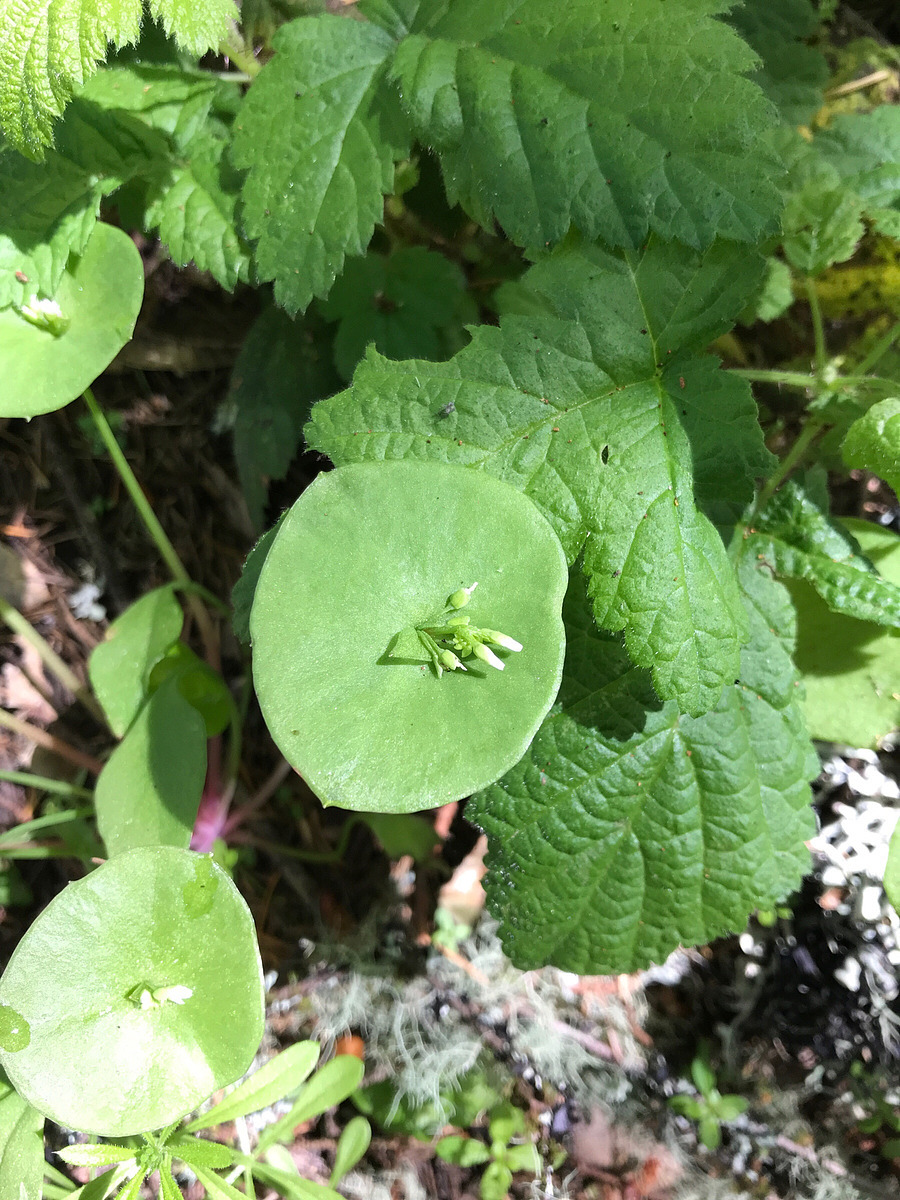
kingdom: Plantae
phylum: Tracheophyta
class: Magnoliopsida
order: Caryophyllales
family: Montiaceae
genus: Claytonia
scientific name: Claytonia perfoliata
